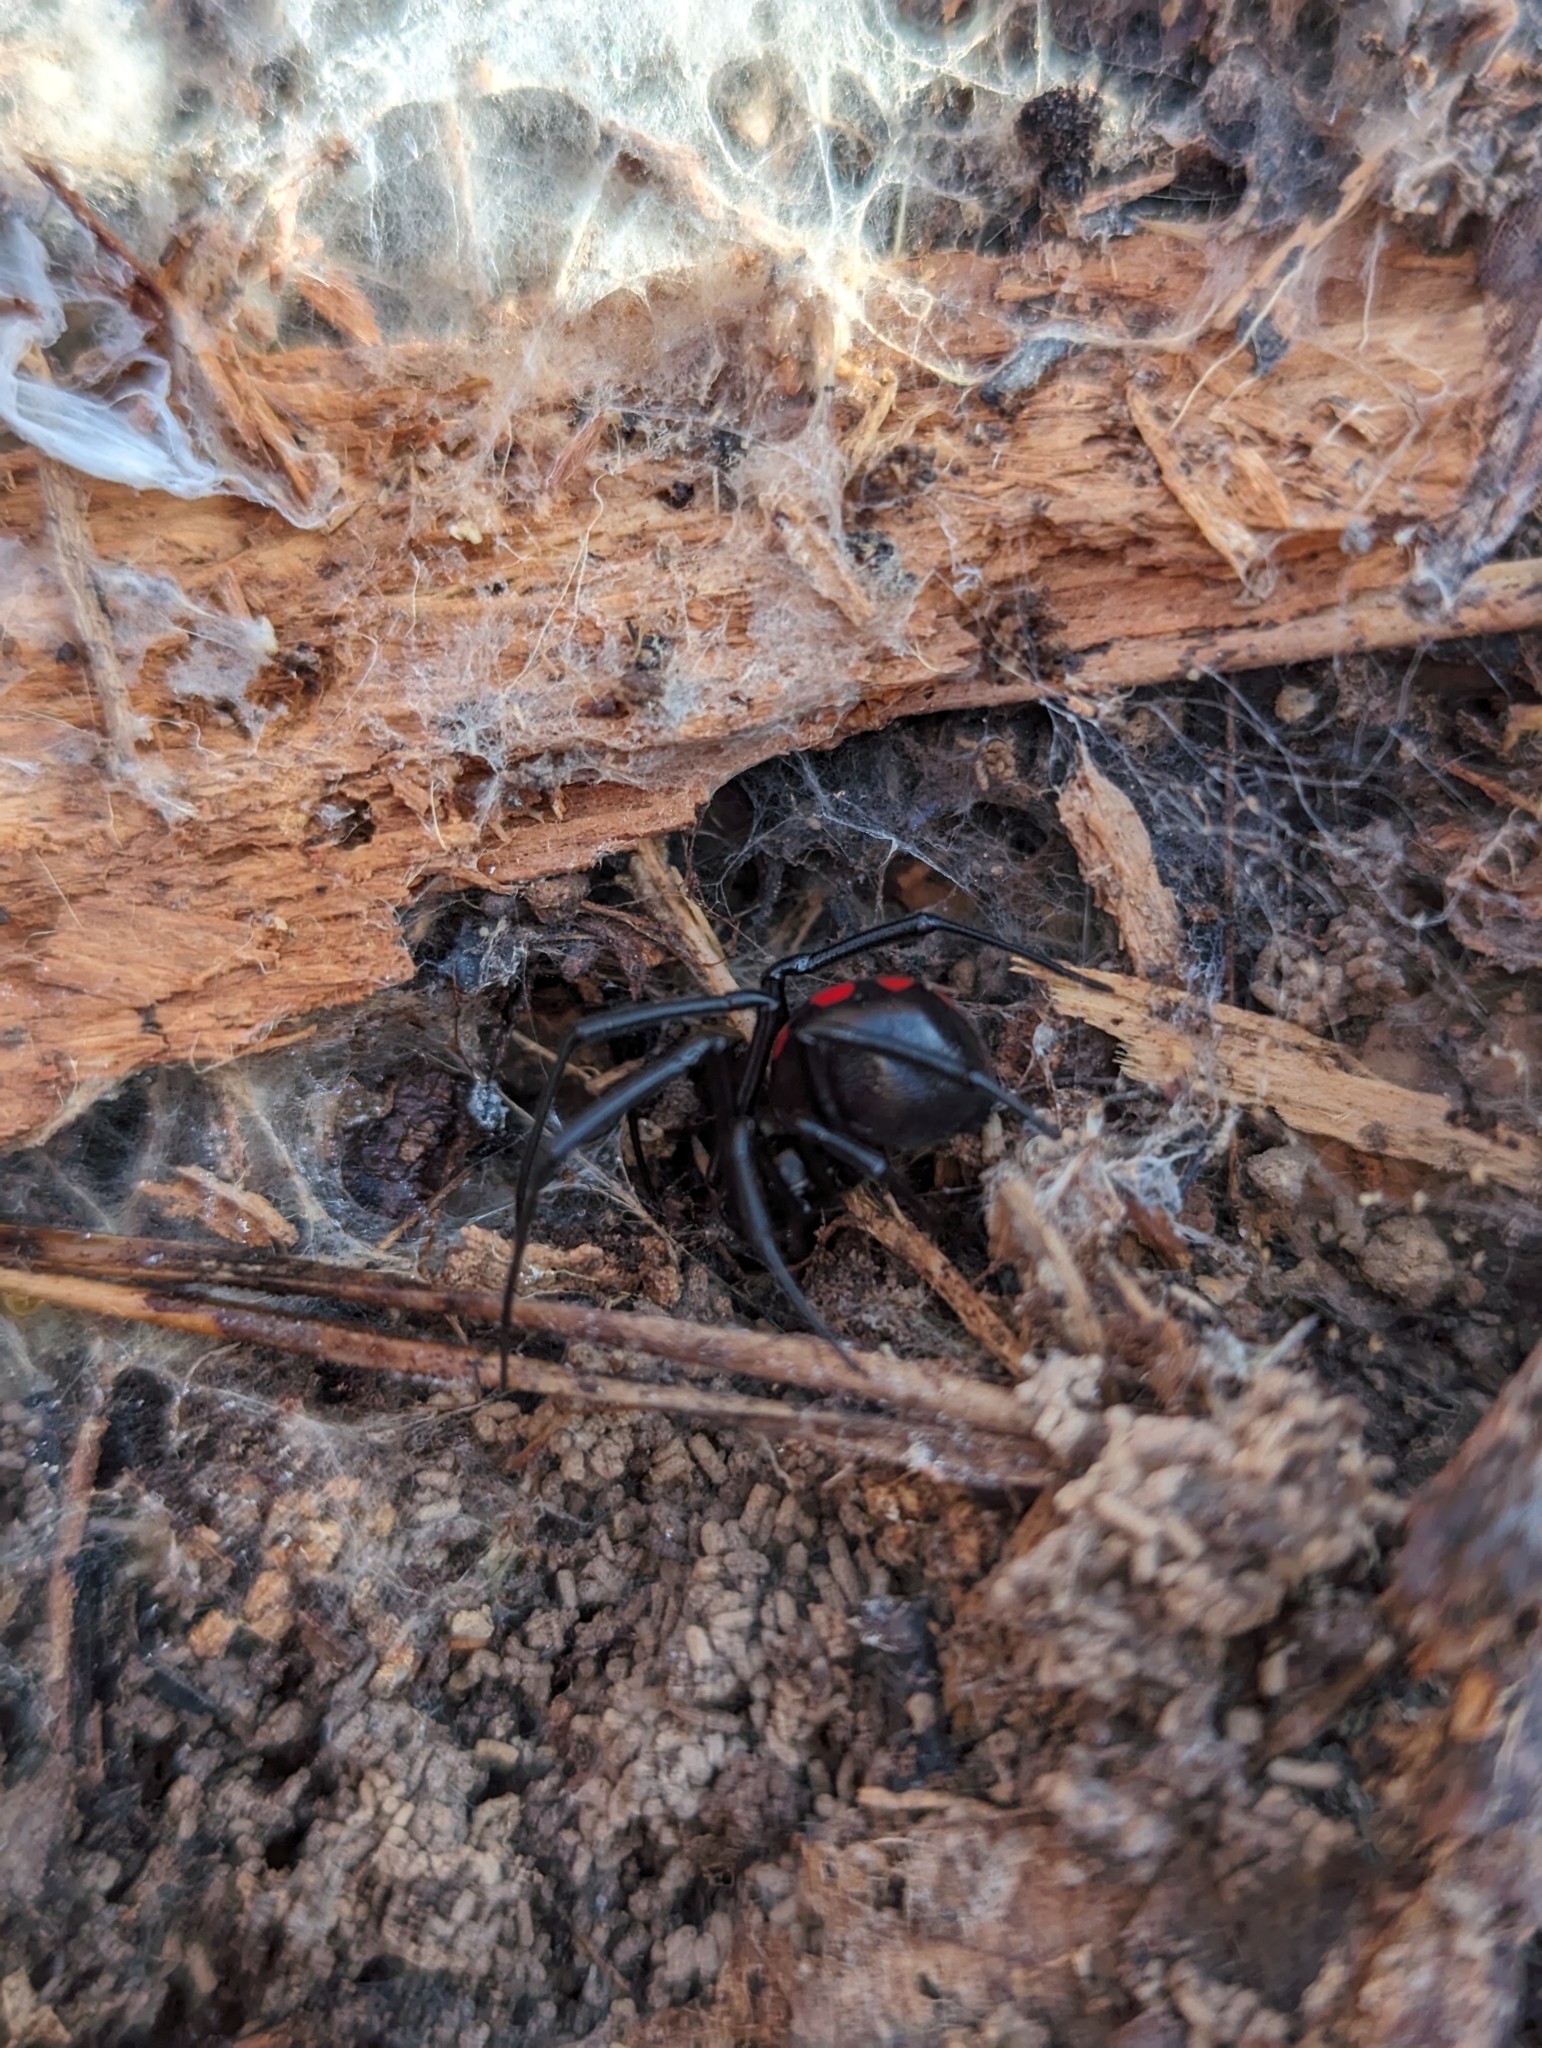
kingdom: Animalia
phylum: Arthropoda
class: Arachnida
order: Araneae
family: Theridiidae
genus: Latrodectus
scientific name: Latrodectus variolus
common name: Northern black widow
